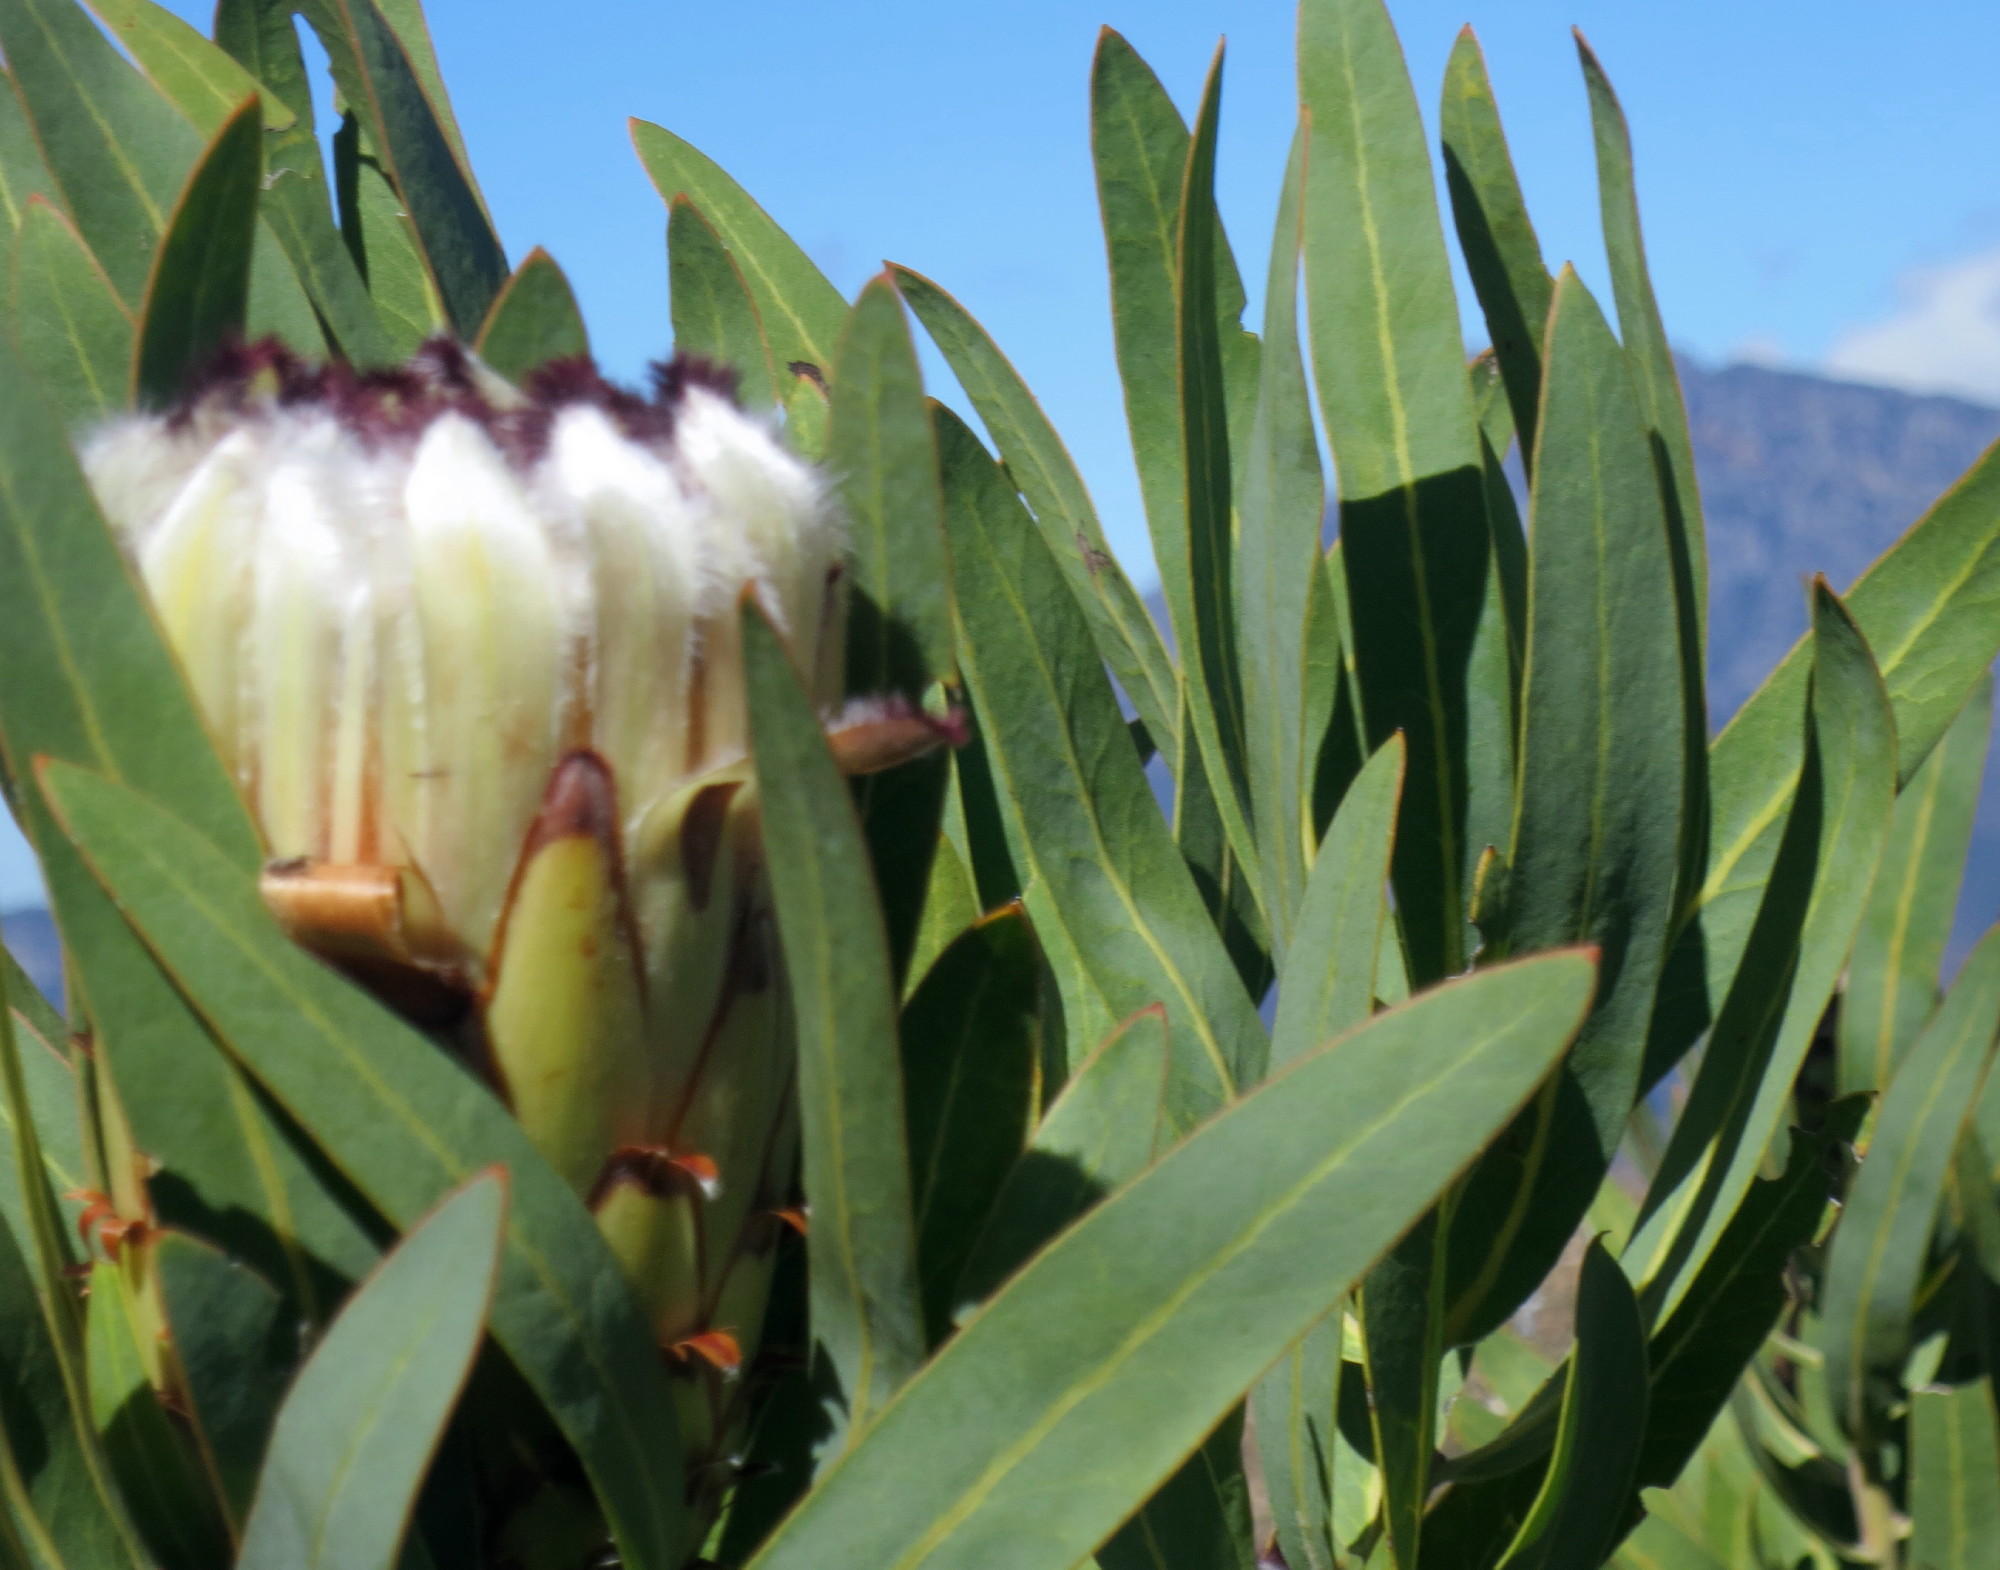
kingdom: Plantae
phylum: Tracheophyta
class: Magnoliopsida
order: Proteales
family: Proteaceae
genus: Protea
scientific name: Protea neriifolia
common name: Blue sugarbush
